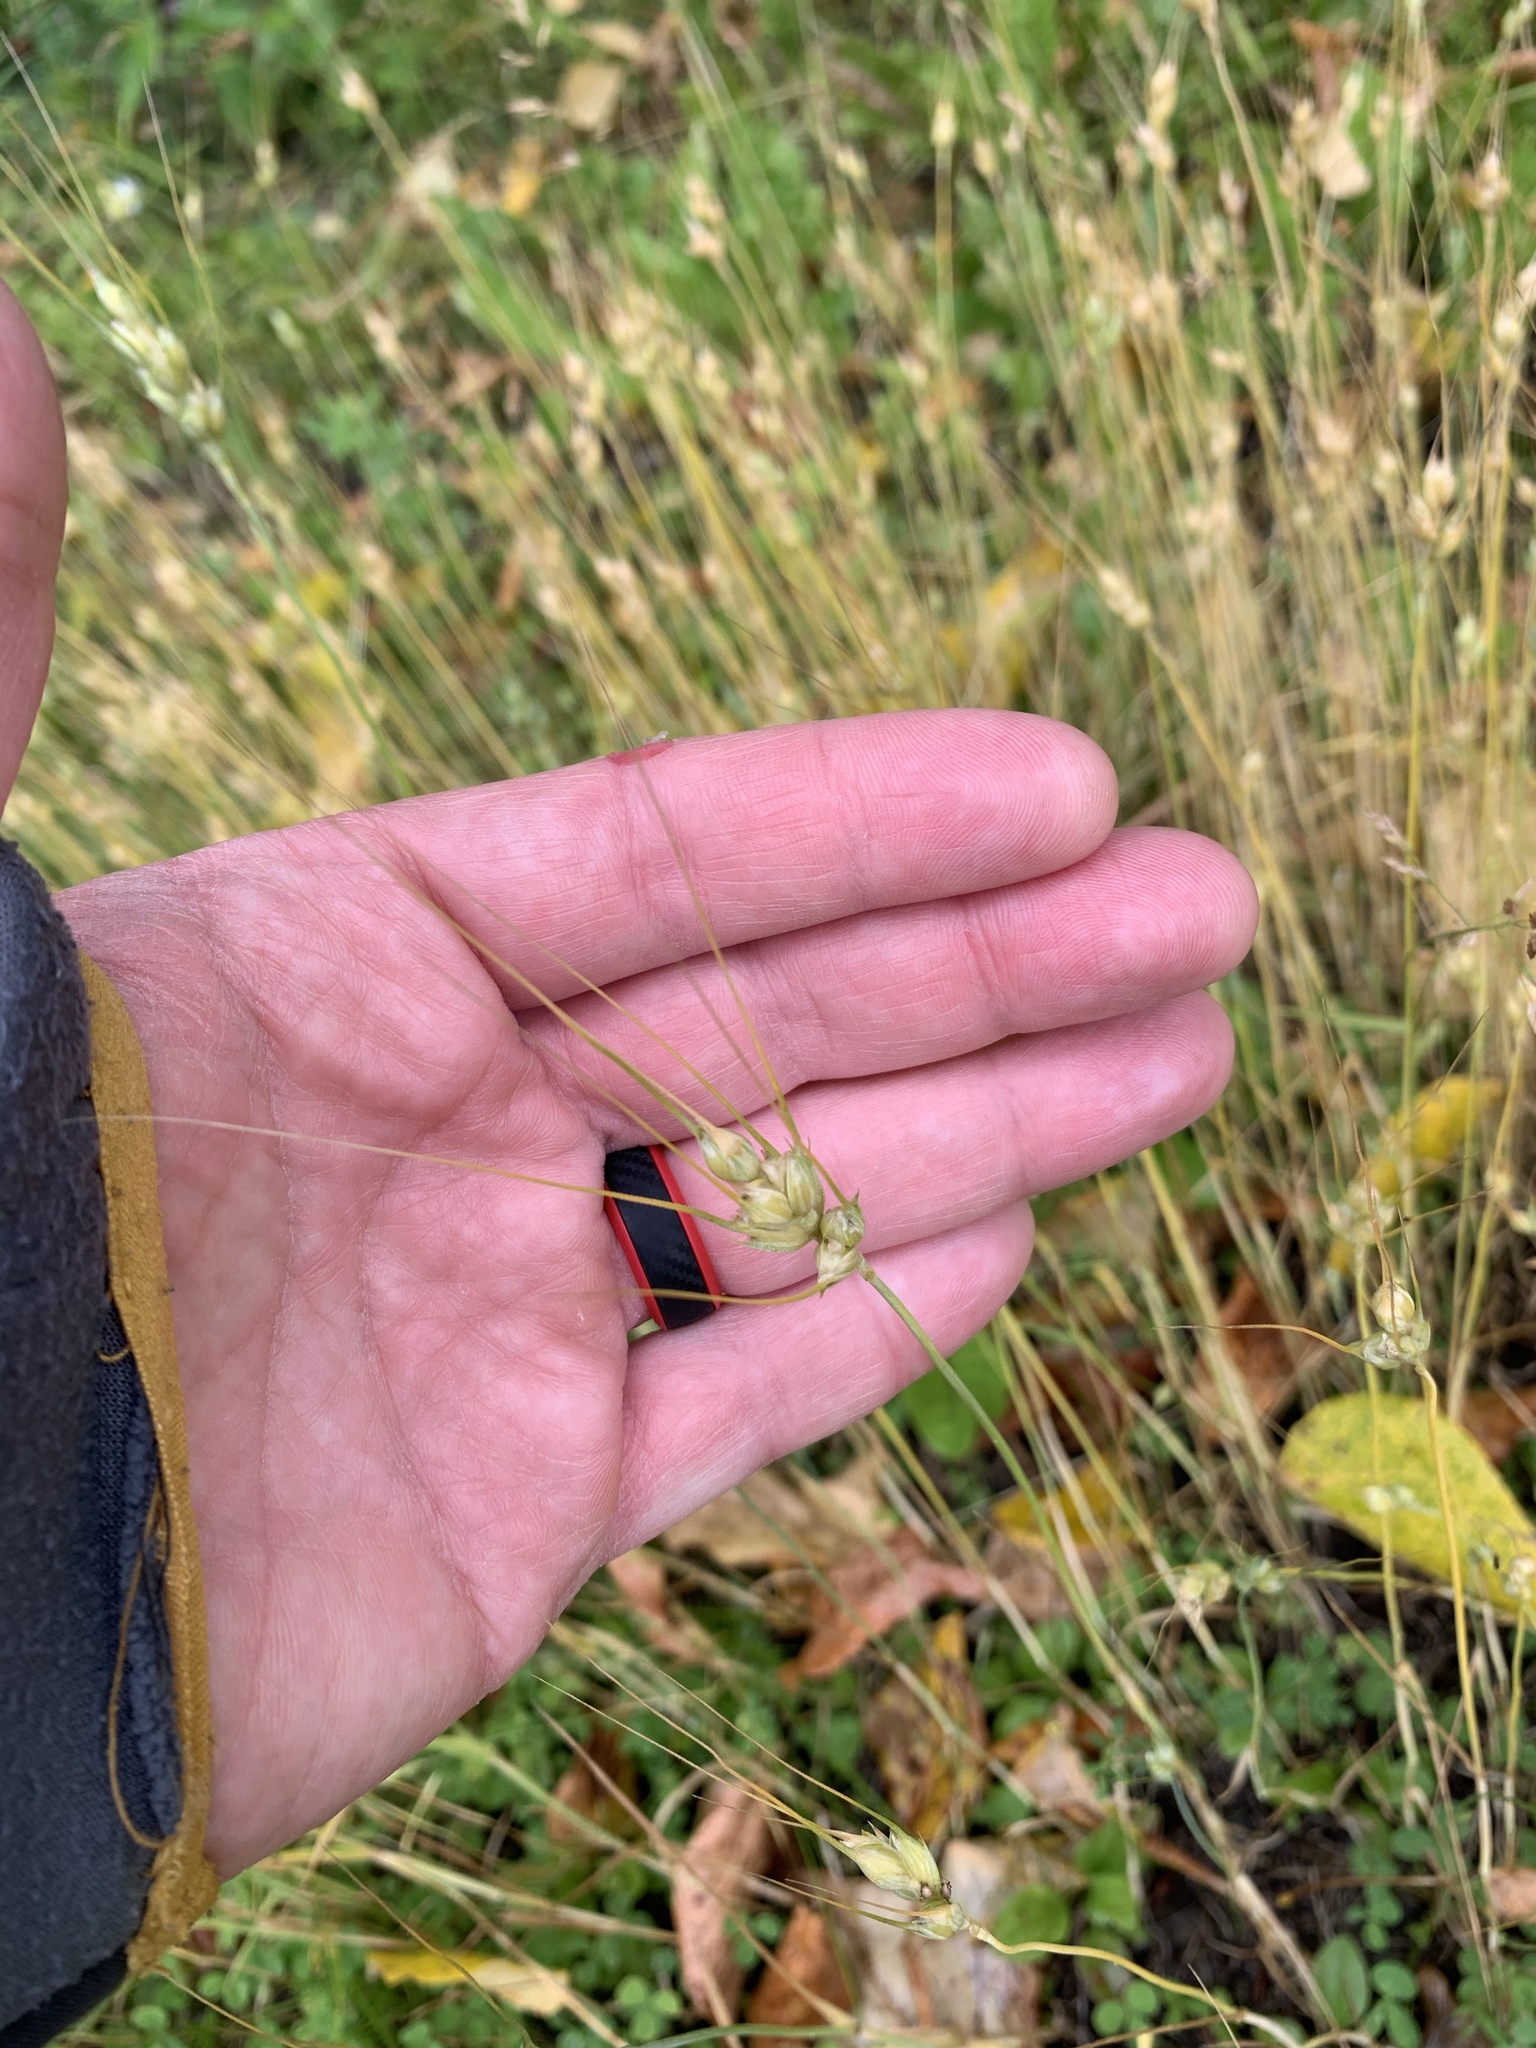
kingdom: Plantae
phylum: Tracheophyta
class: Liliopsida
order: Poales
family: Poaceae
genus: Triticum
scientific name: Triticum aestivum
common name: Common wheat
